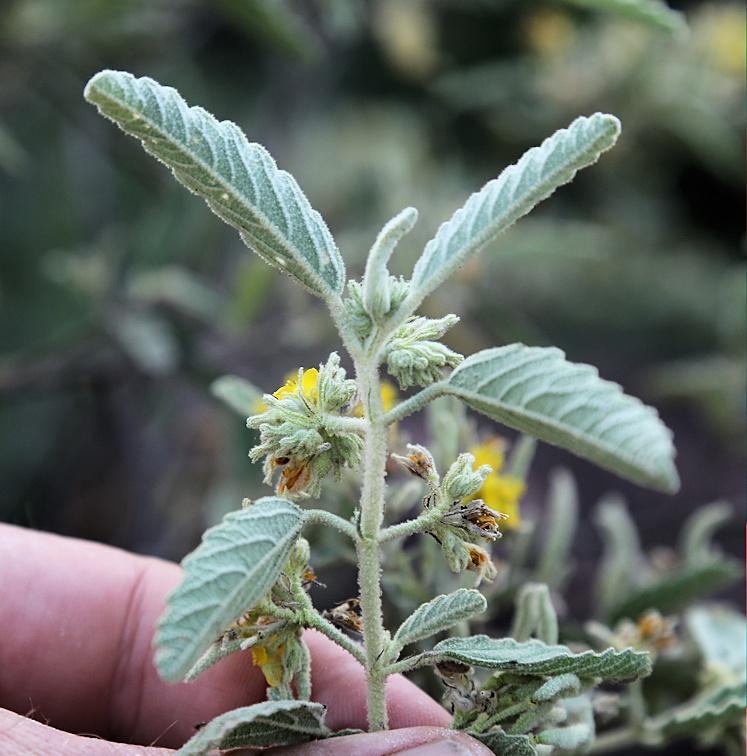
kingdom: Plantae
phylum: Tracheophyta
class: Magnoliopsida
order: Malvales
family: Malvaceae
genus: Corchorus
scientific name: Corchorus kirkii
